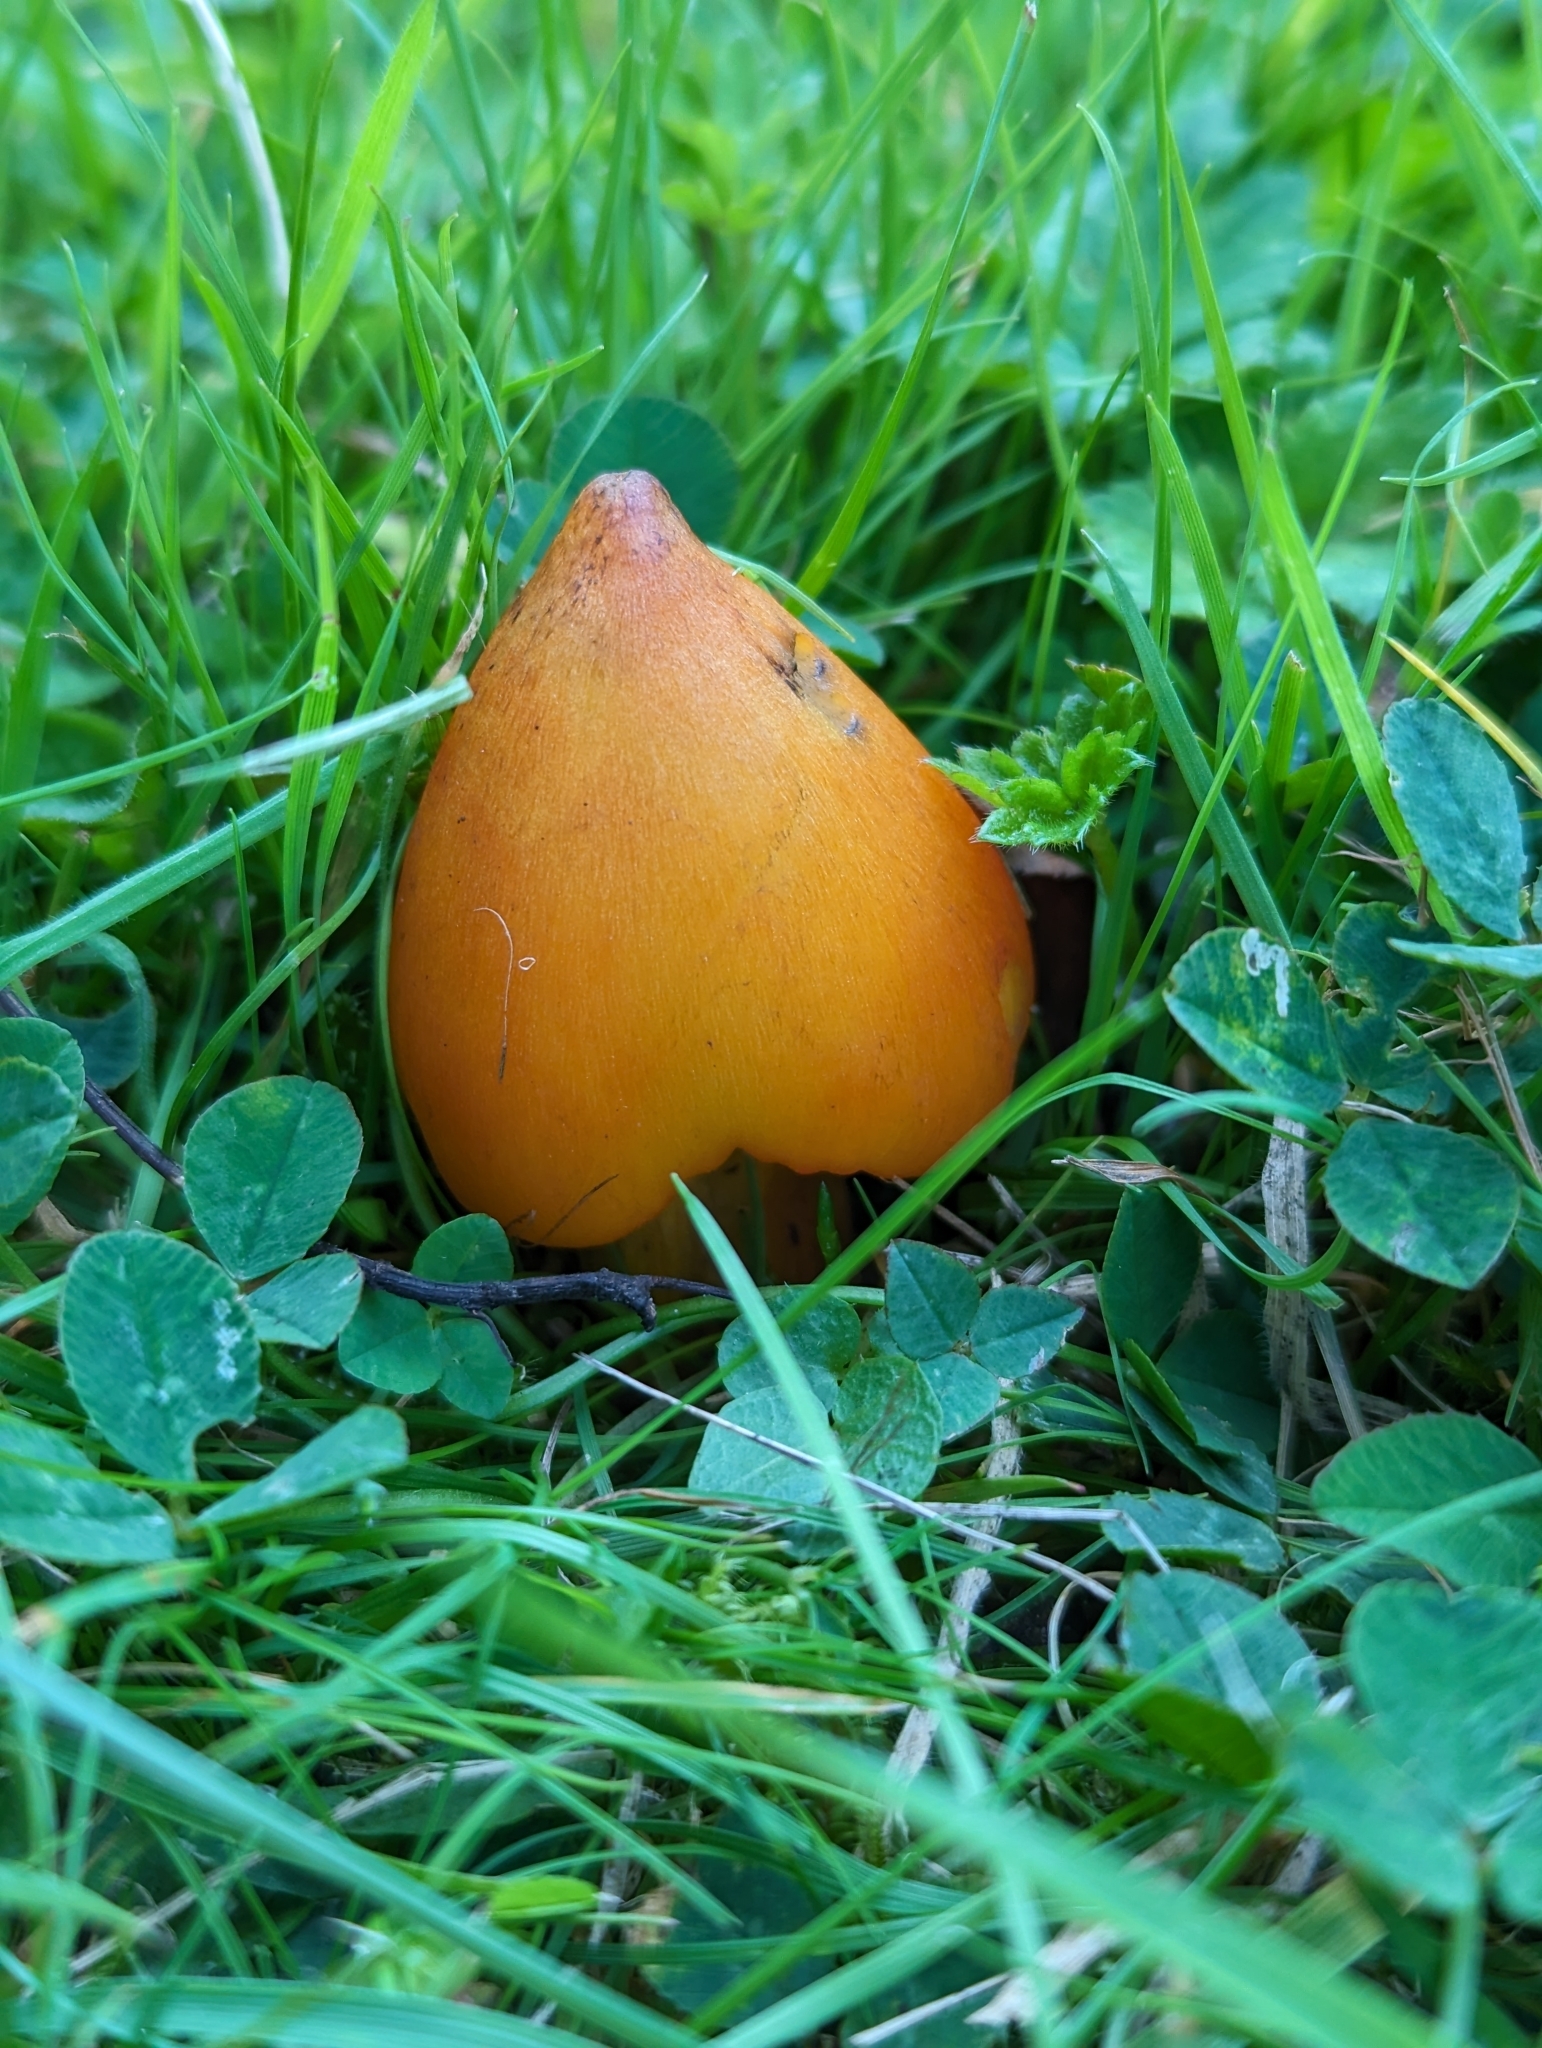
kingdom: Fungi
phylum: Basidiomycota
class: Agaricomycetes
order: Agaricales
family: Hygrophoraceae
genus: Hygrocybe
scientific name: Hygrocybe conica
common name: Blackening wax-cap
